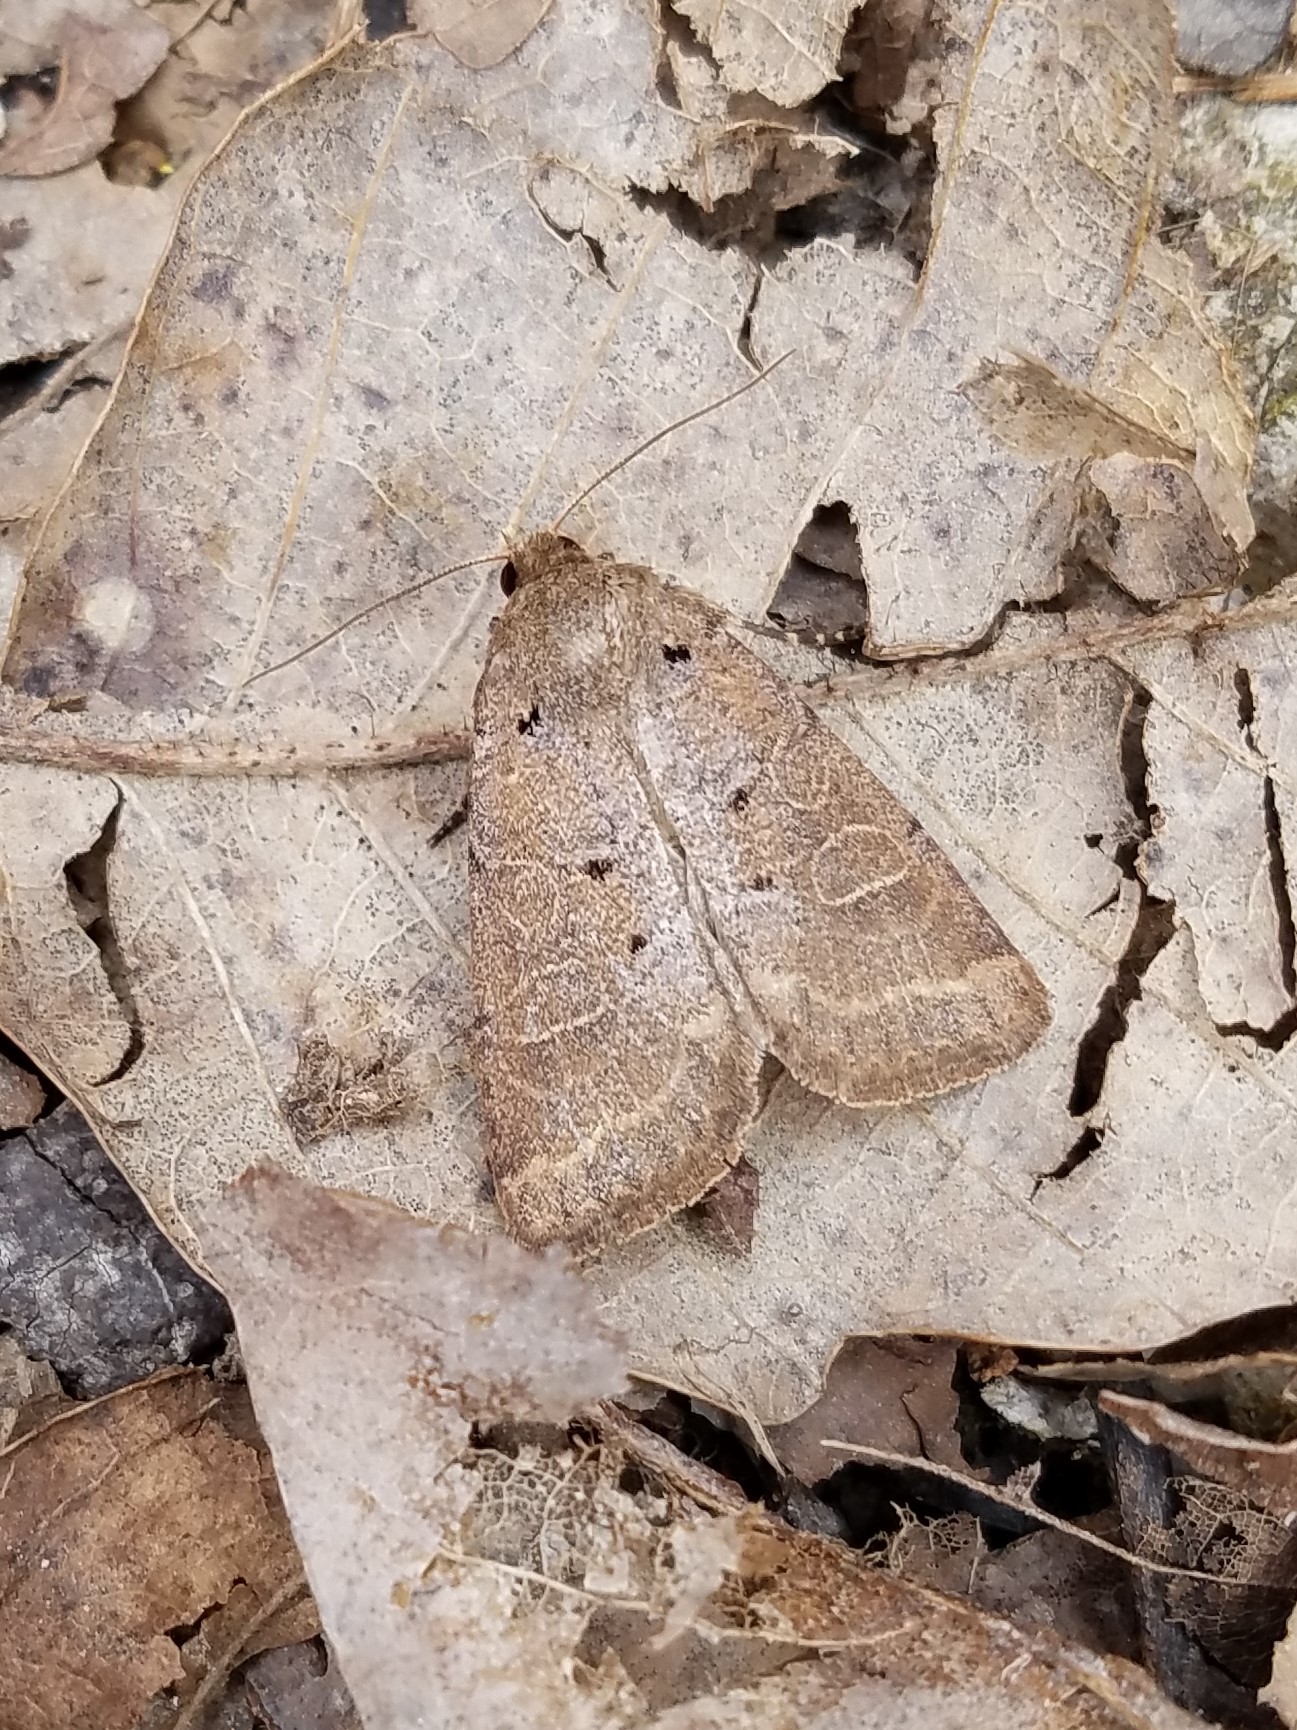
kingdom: Animalia
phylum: Arthropoda
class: Insecta
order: Lepidoptera
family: Noctuidae
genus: Kocakina
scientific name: Kocakina fidelis
